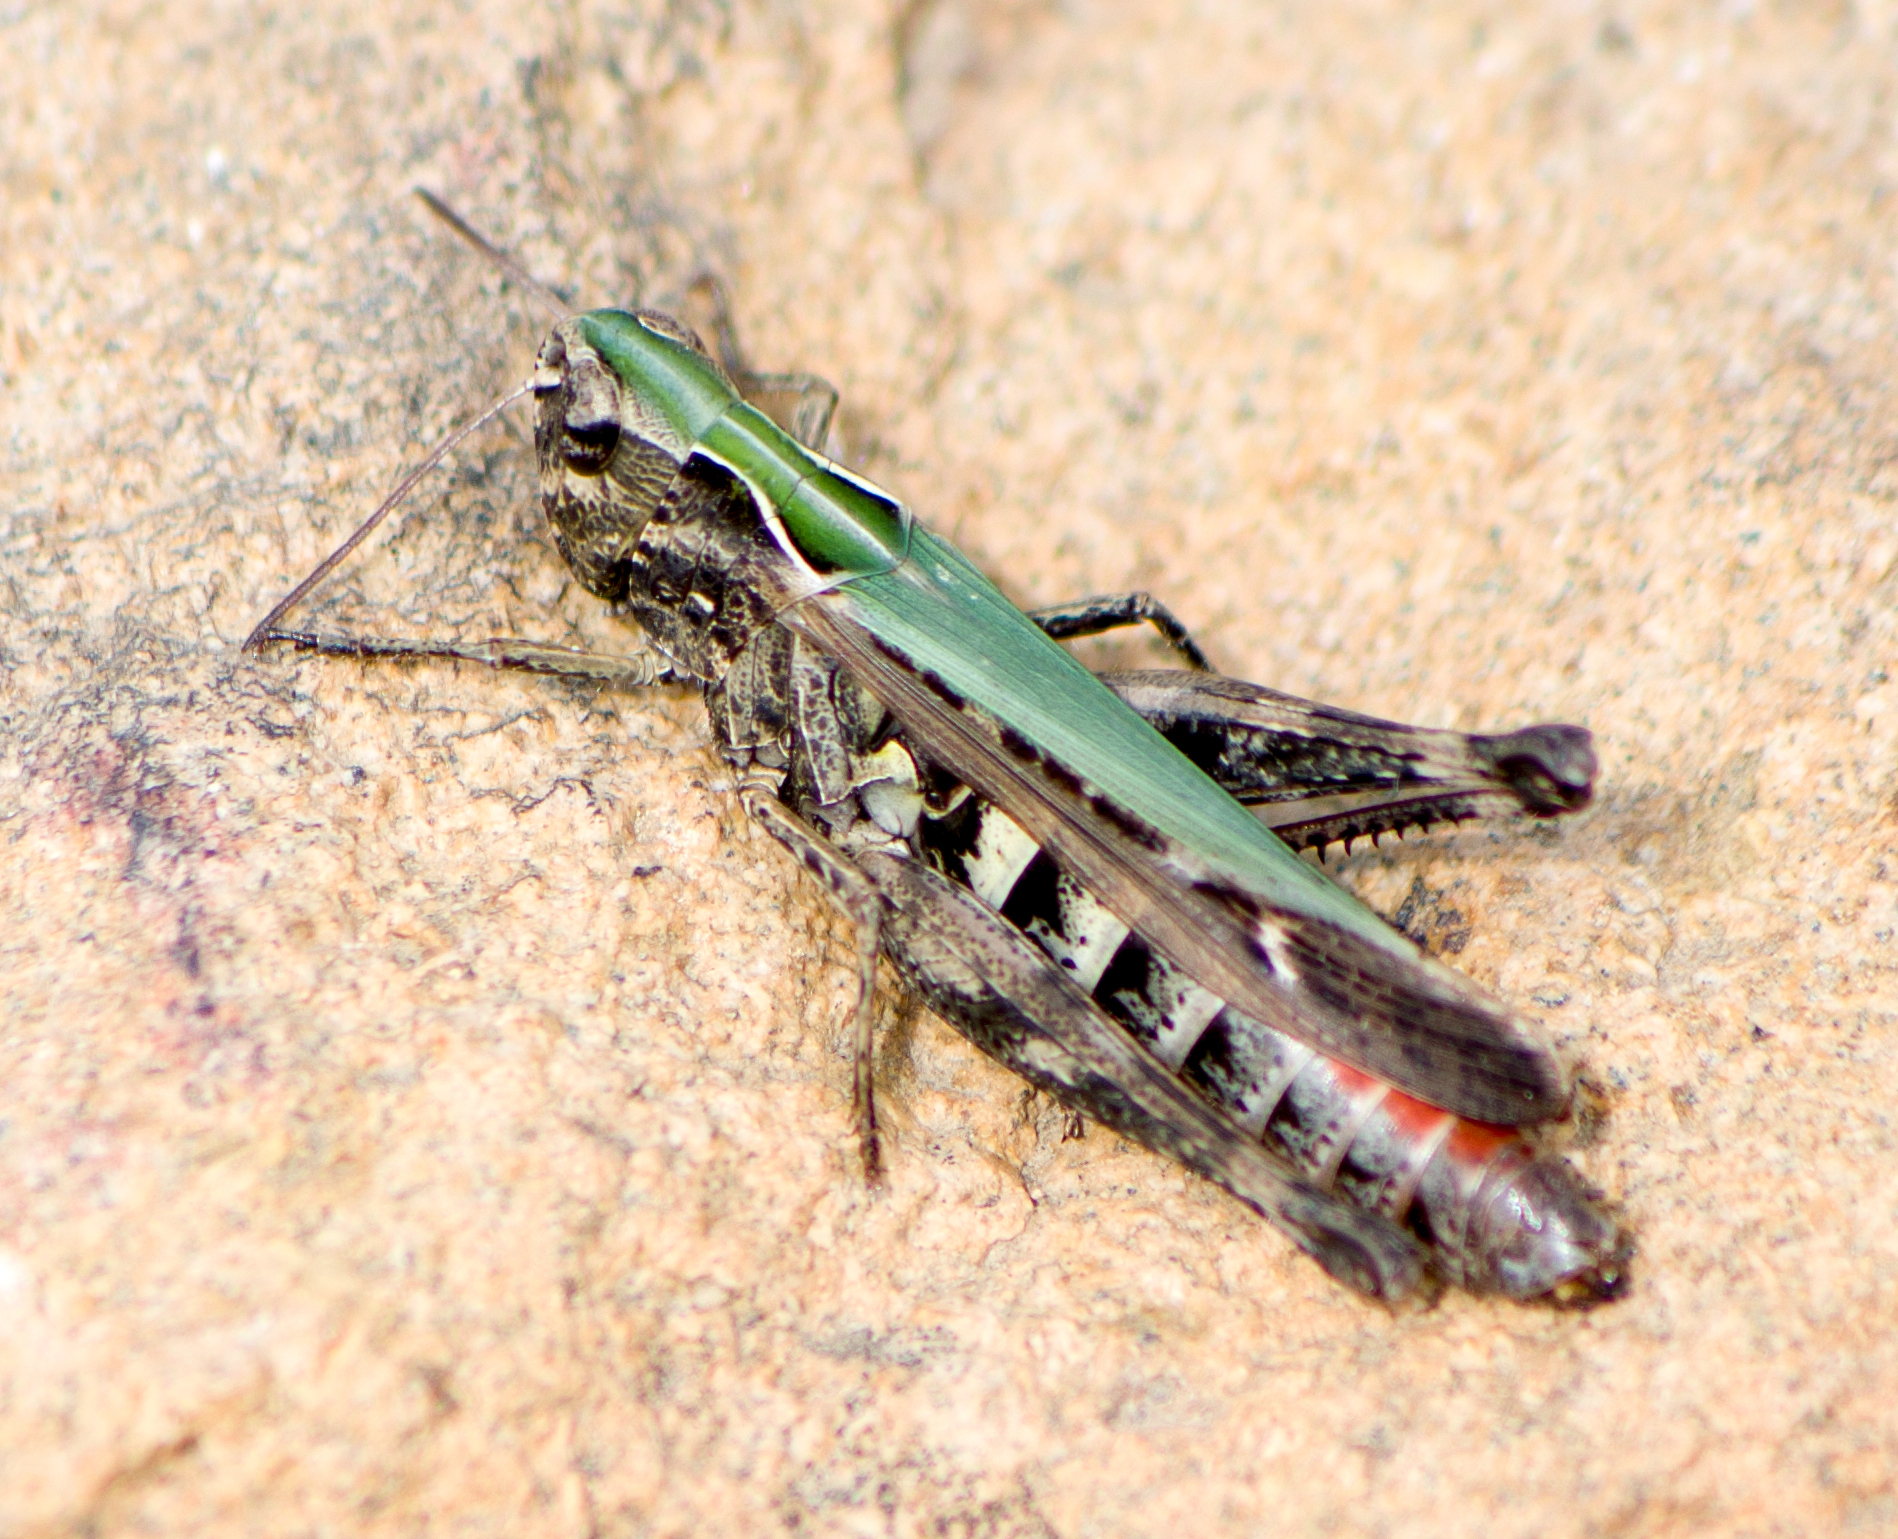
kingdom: Animalia
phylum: Arthropoda
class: Insecta
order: Orthoptera
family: Acrididae
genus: Omocestus
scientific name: Omocestus rufipes
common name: Woodland grasshopper
